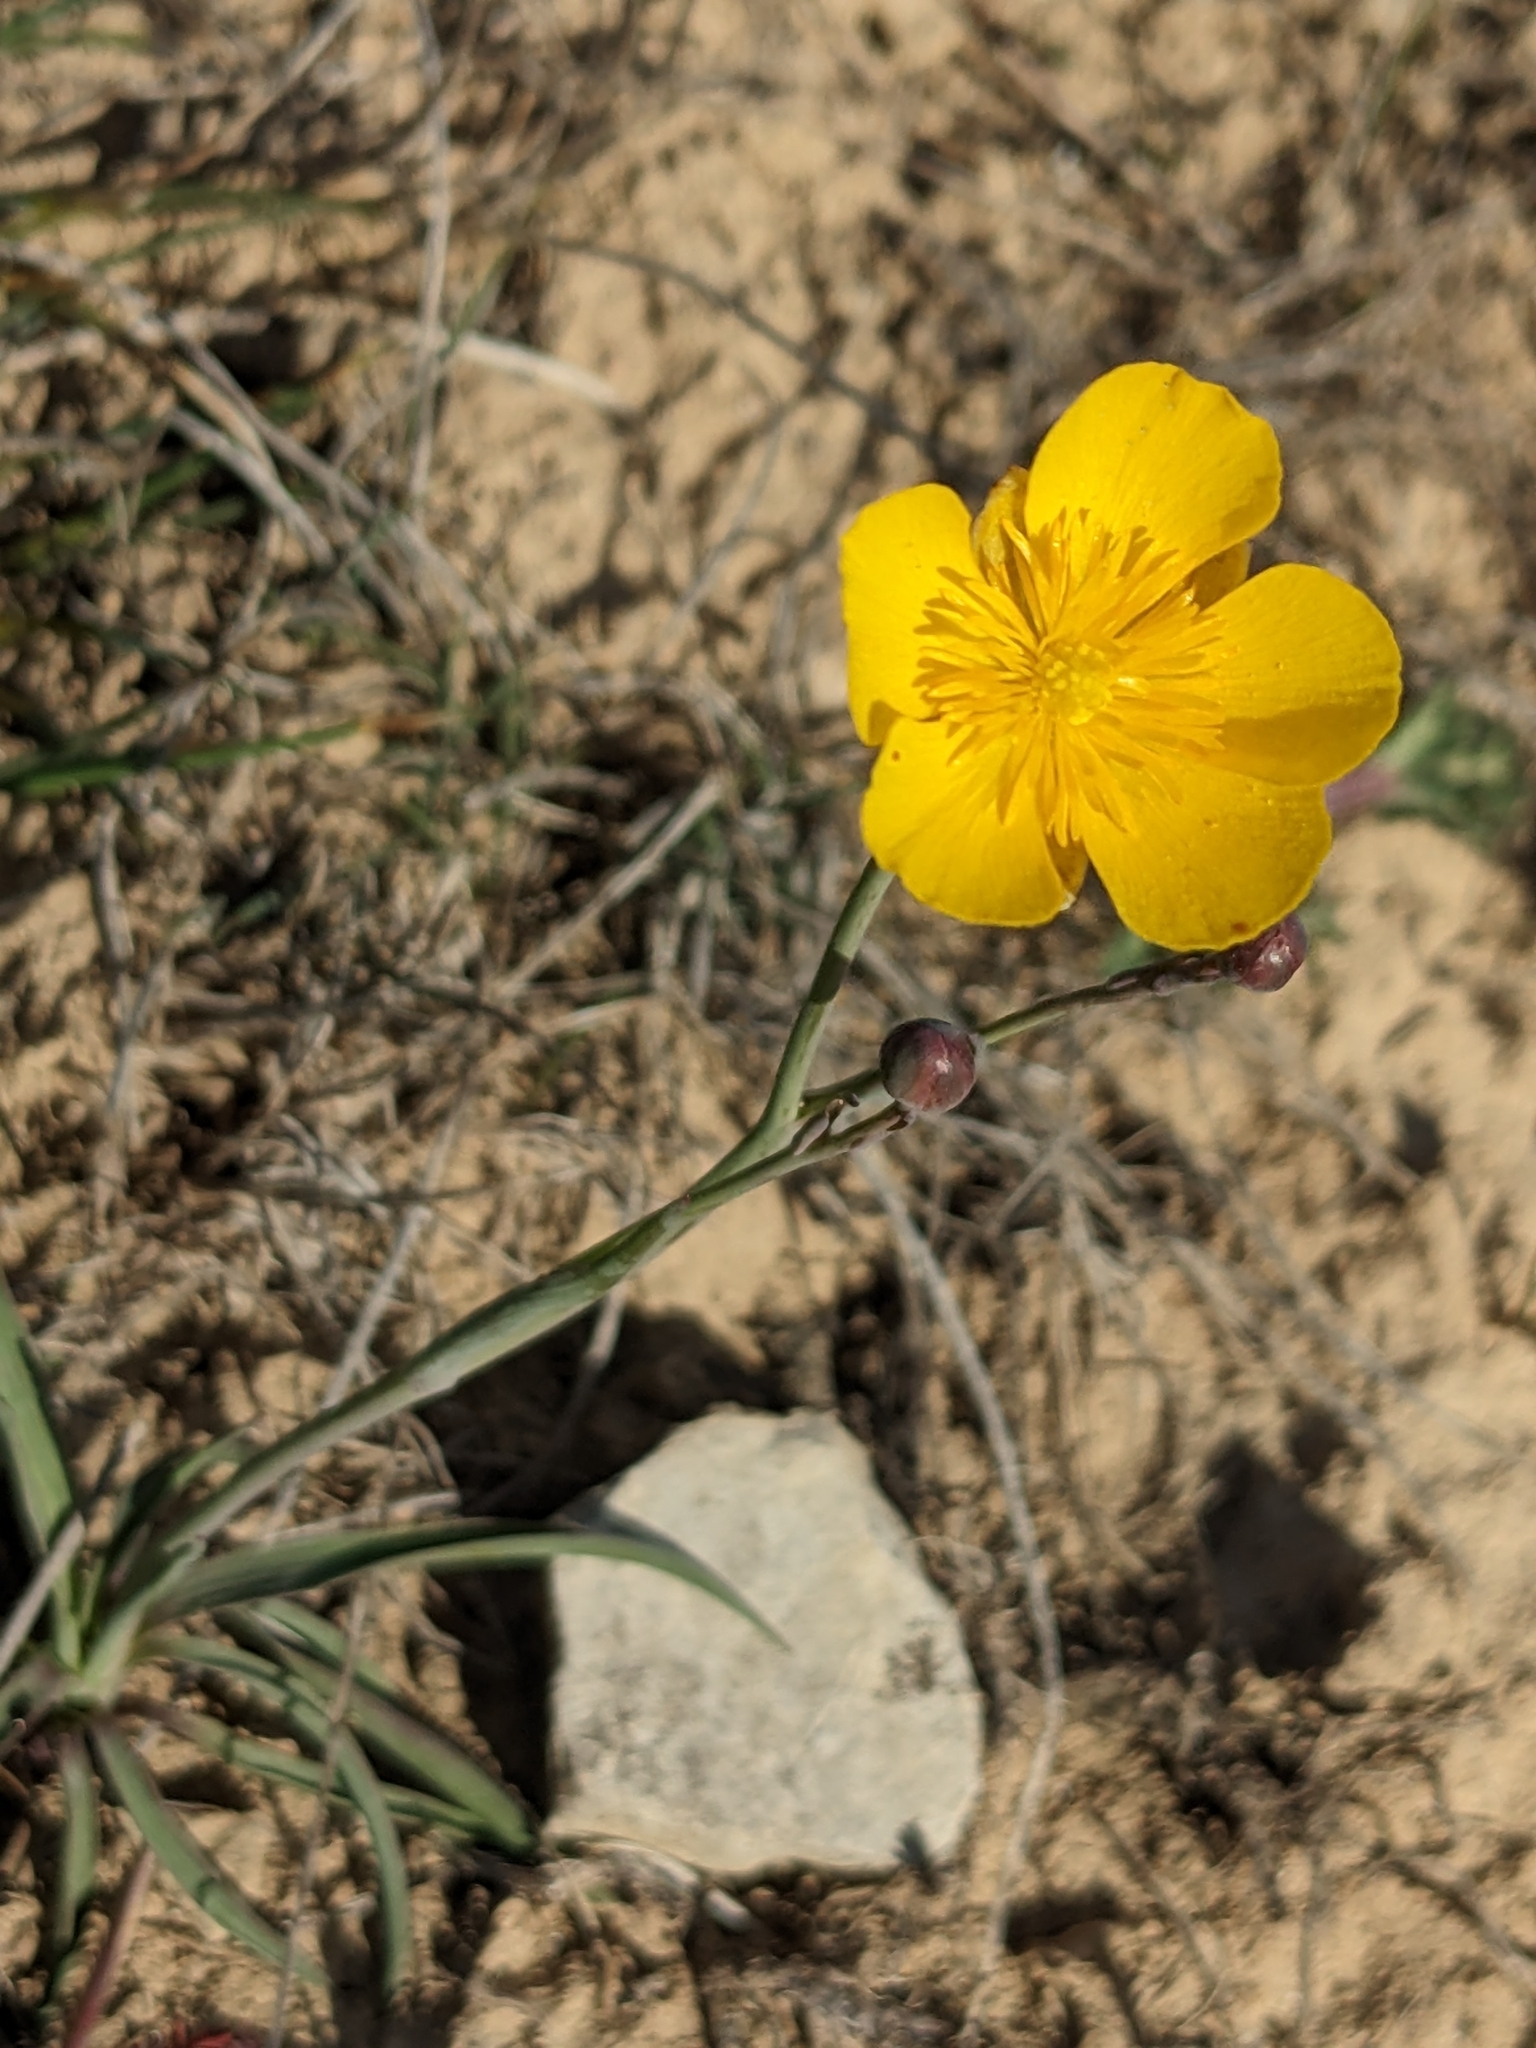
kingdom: Plantae
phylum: Tracheophyta
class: Magnoliopsida
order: Ranunculales
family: Ranunculaceae
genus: Ranunculus
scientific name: Ranunculus gramineus
